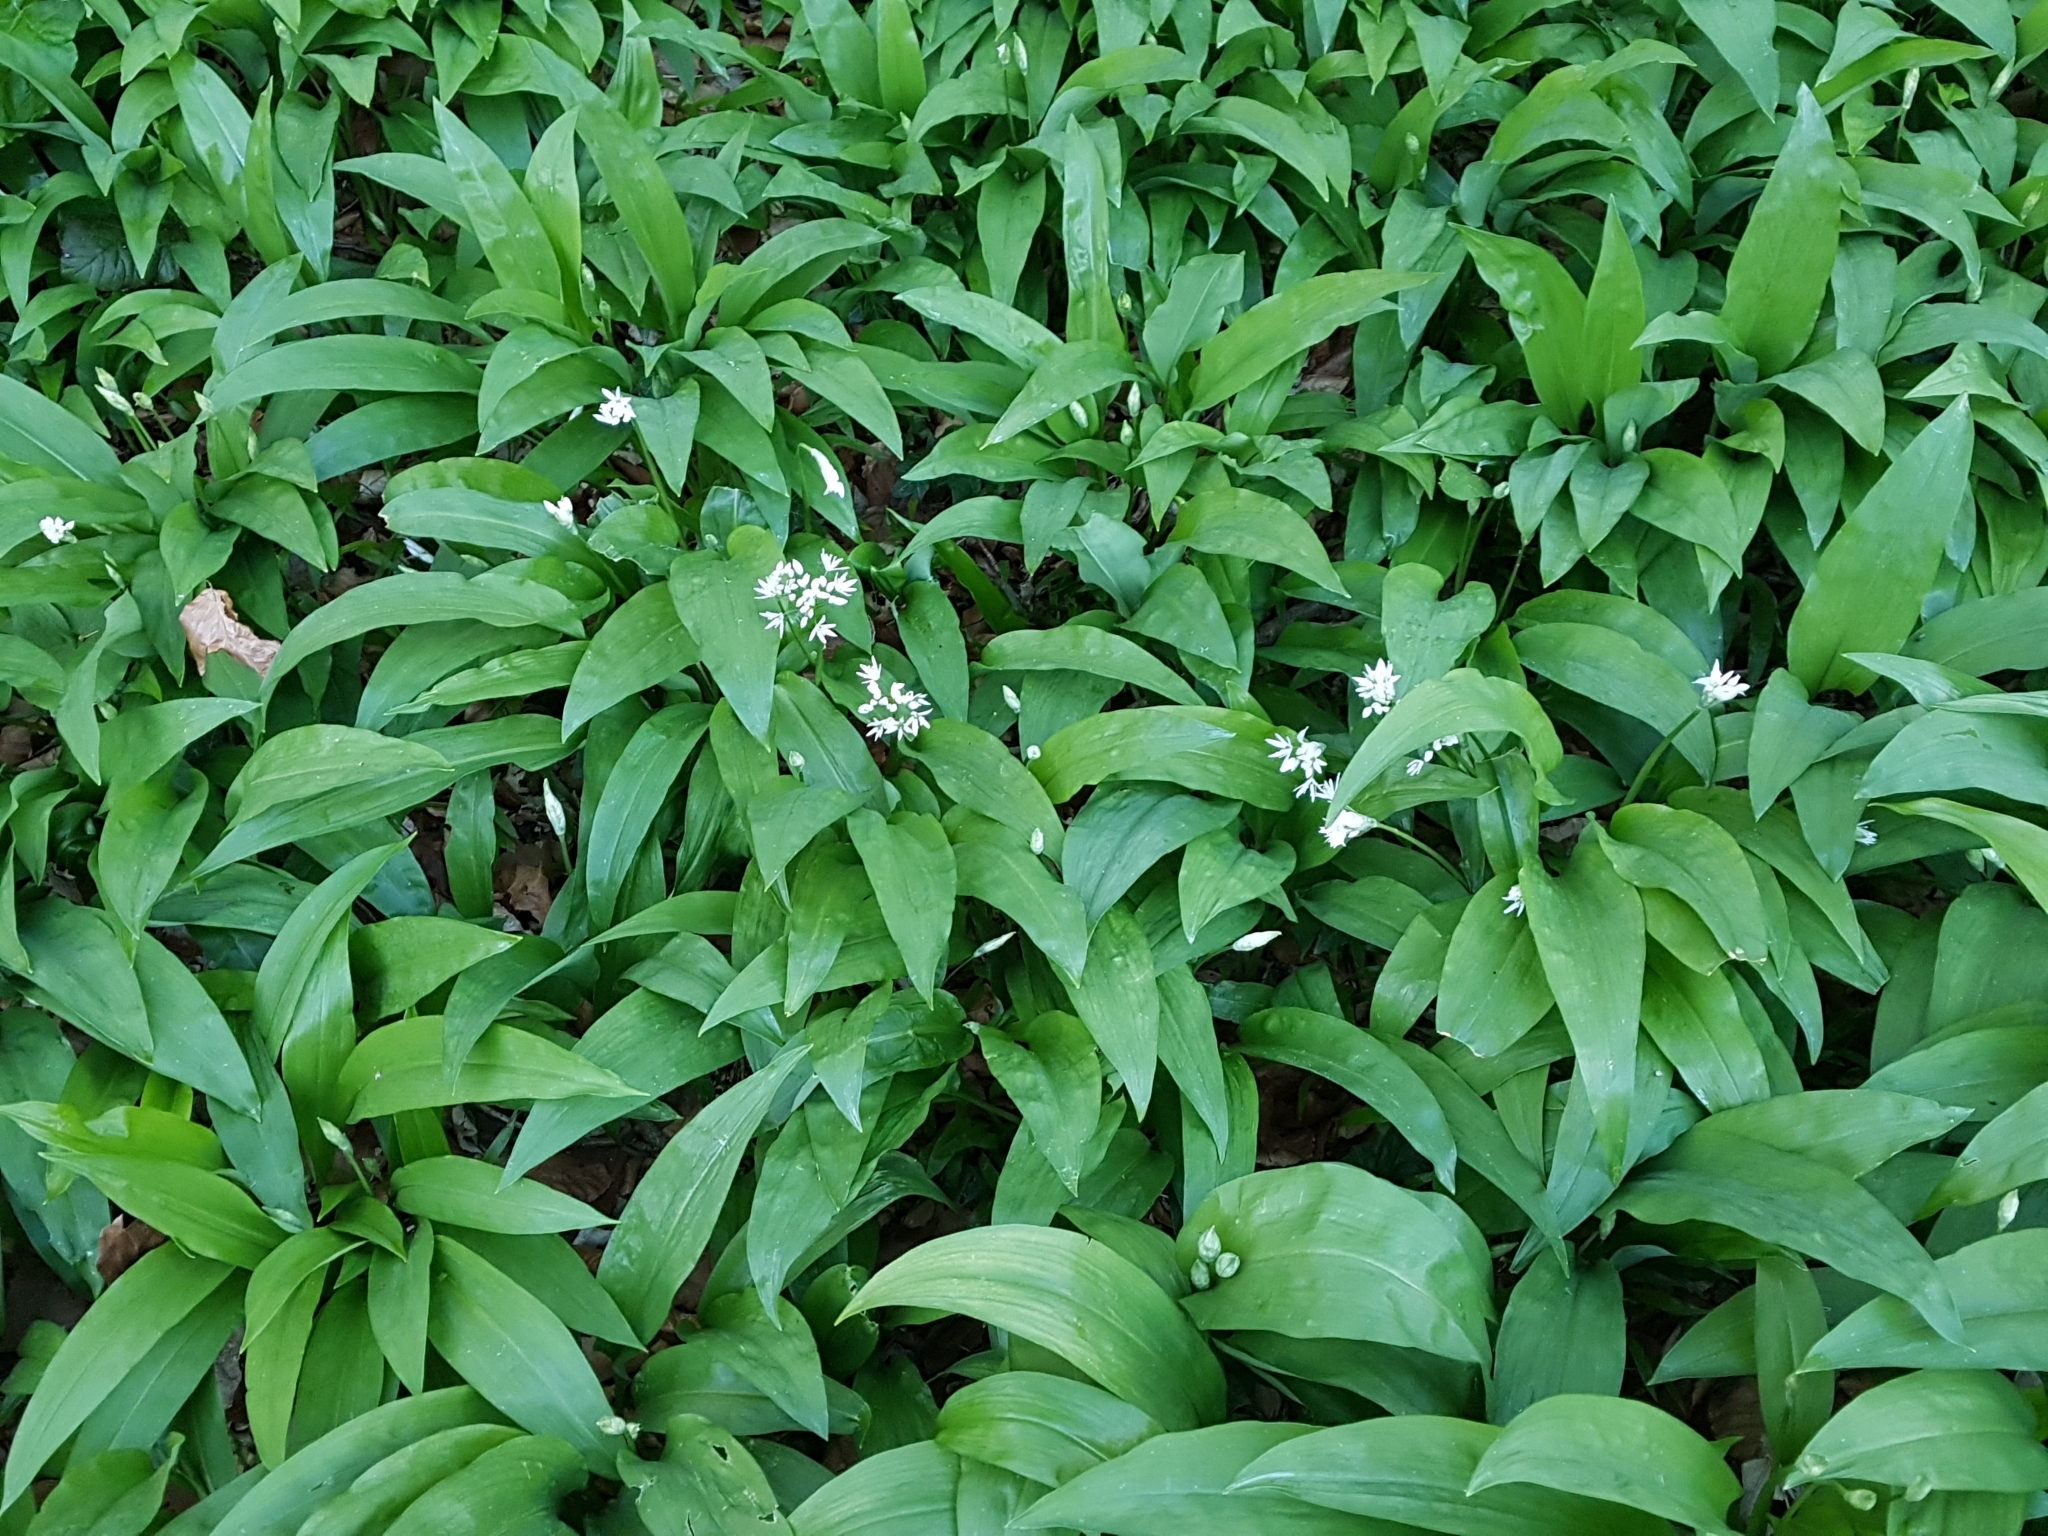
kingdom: Plantae
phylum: Tracheophyta
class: Liliopsida
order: Asparagales
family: Amaryllidaceae
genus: Allium
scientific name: Allium ursinum
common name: Ramsons
